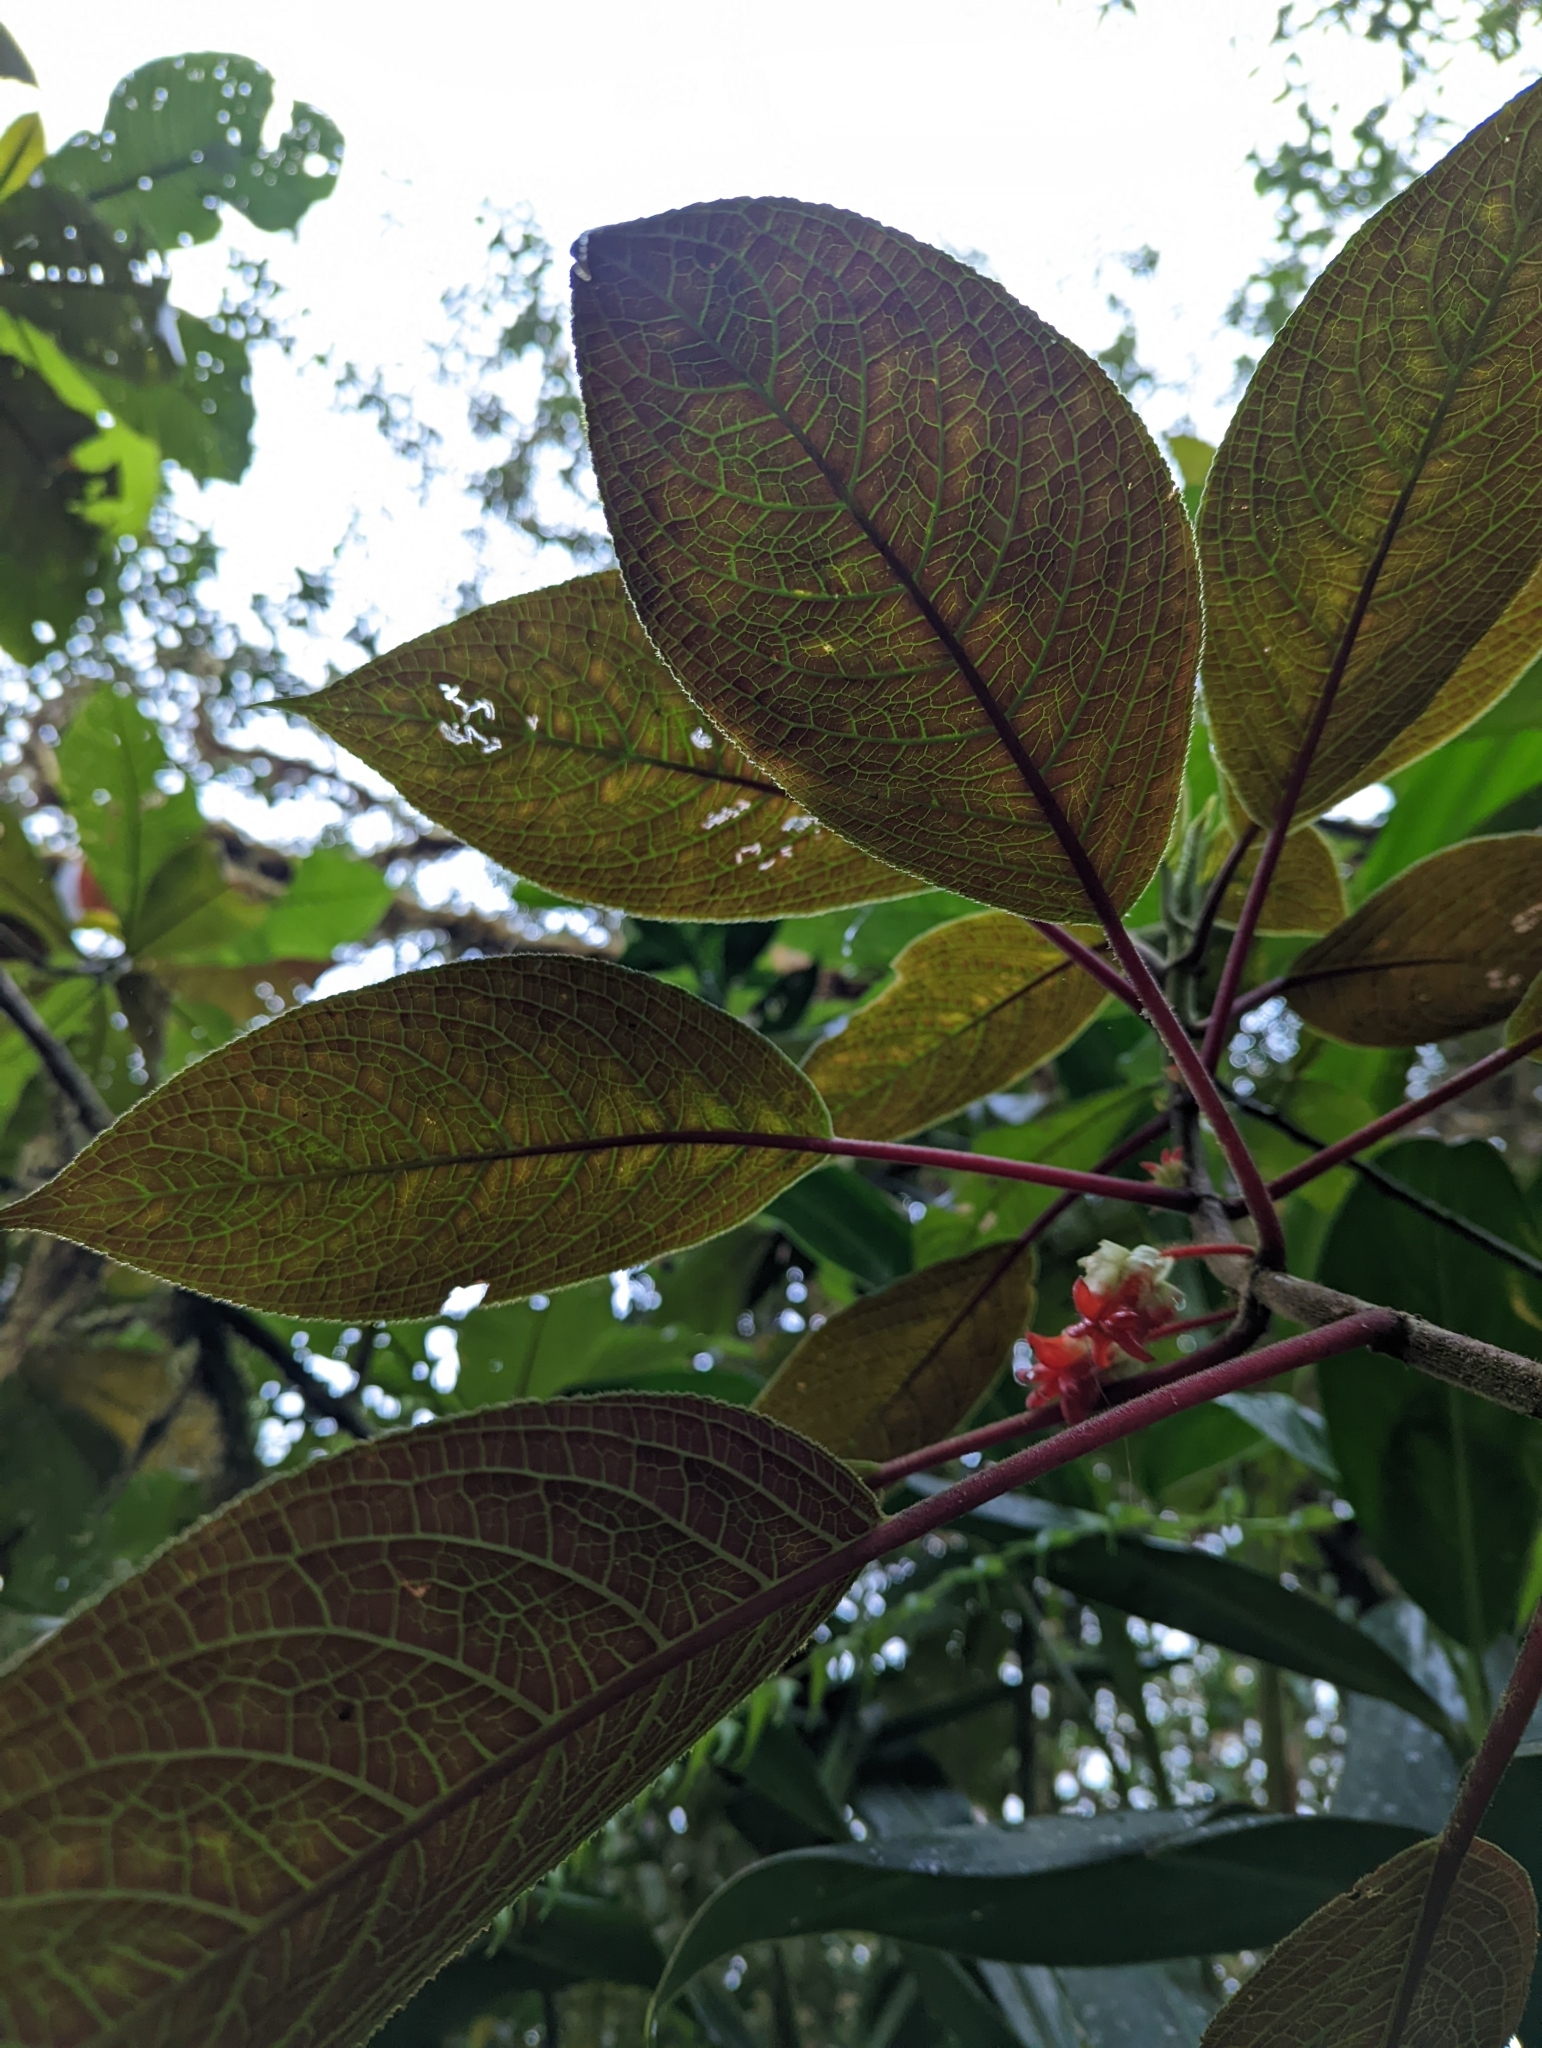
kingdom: Plantae
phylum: Tracheophyta
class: Magnoliopsida
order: Lamiales
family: Gesneriaceae
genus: Glossoloma
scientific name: Glossoloma schultzei
